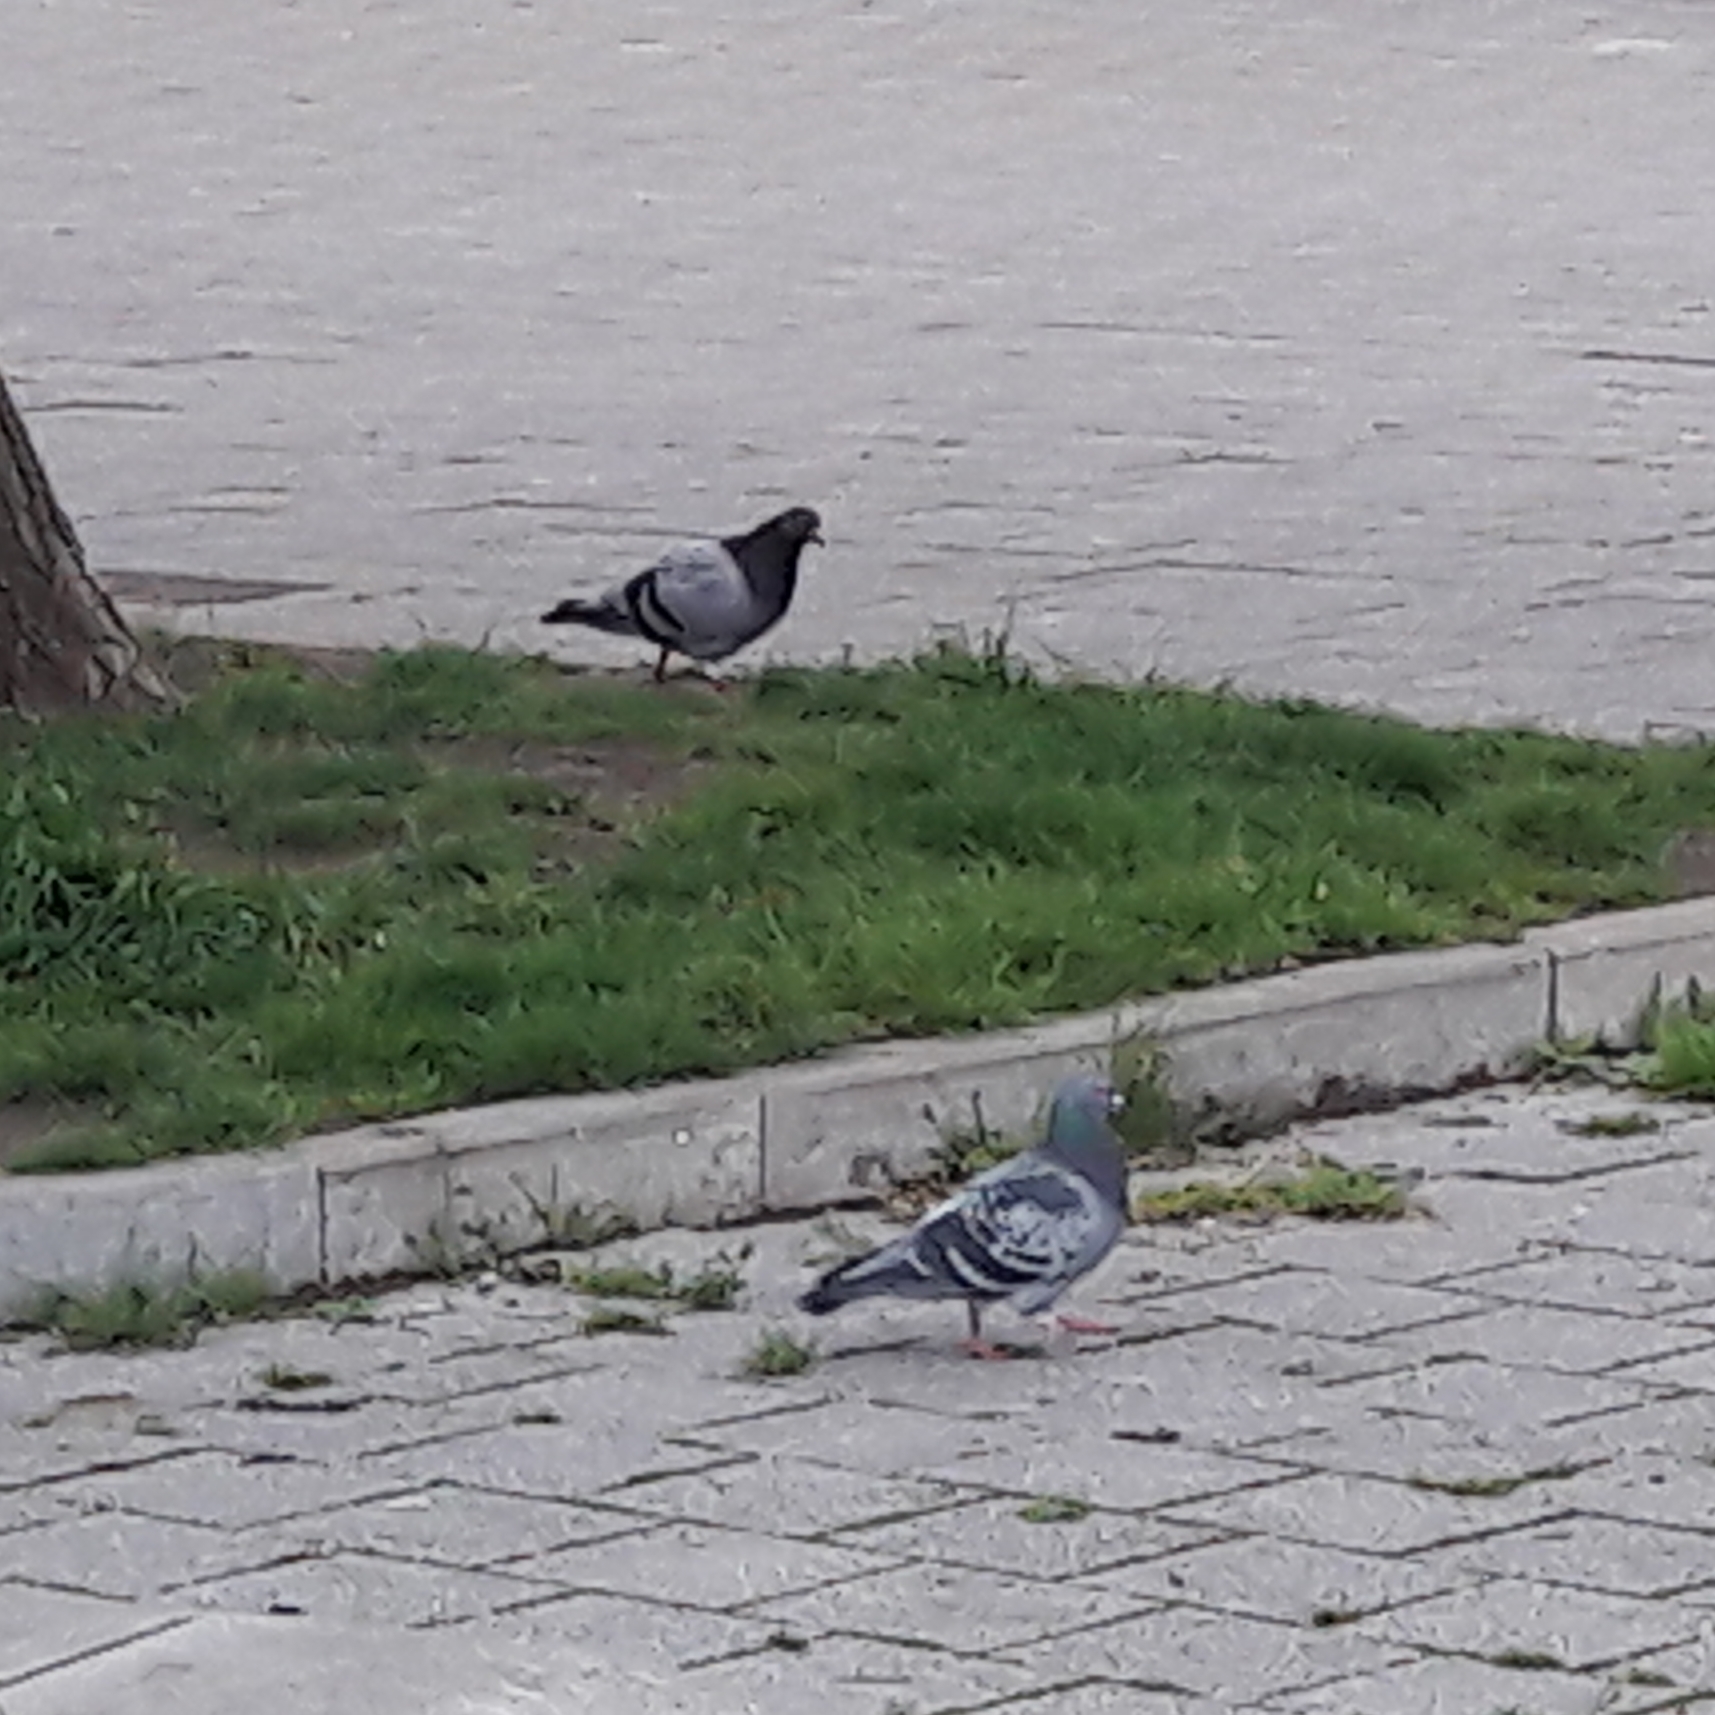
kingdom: Animalia
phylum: Chordata
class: Aves
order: Columbiformes
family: Columbidae
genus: Columba
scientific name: Columba livia
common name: Rock pigeon
